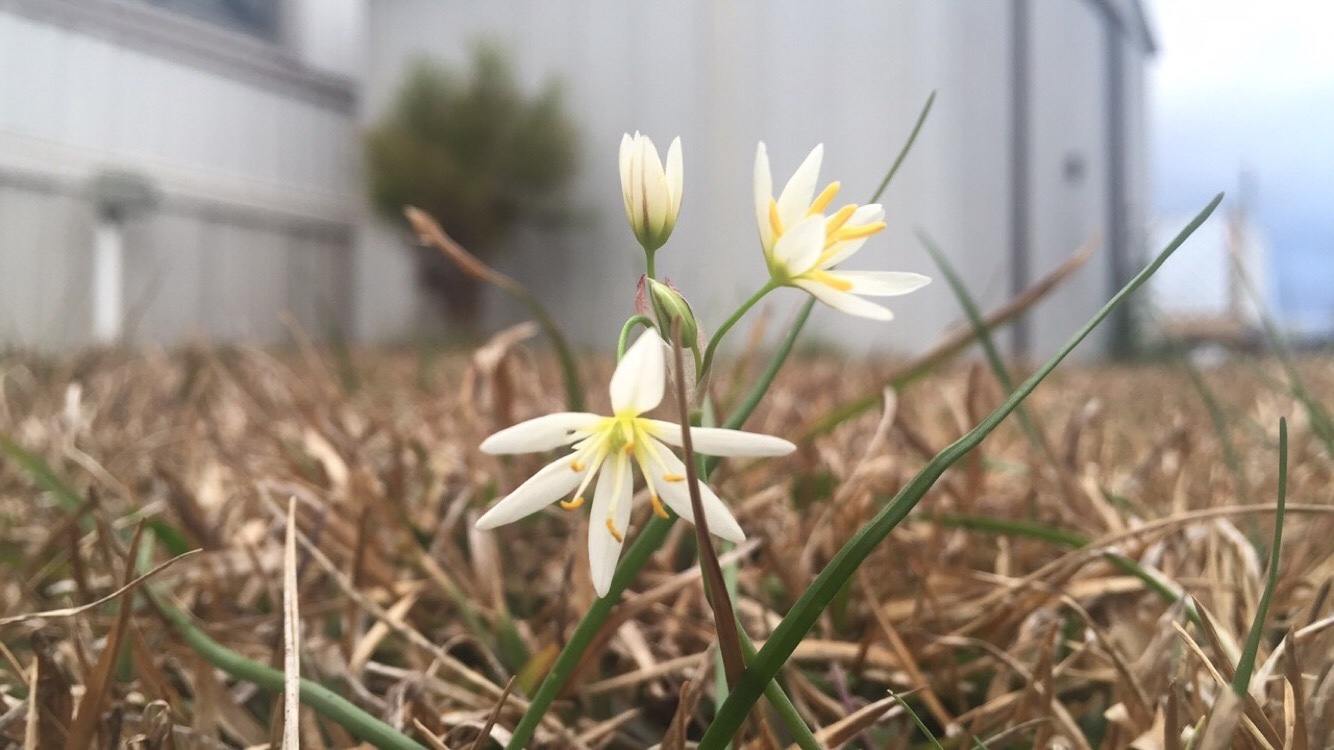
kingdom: Plantae
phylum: Tracheophyta
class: Liliopsida
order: Asparagales
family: Amaryllidaceae
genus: Nothoscordum
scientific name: Nothoscordum bivalve
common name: Crow-poison
